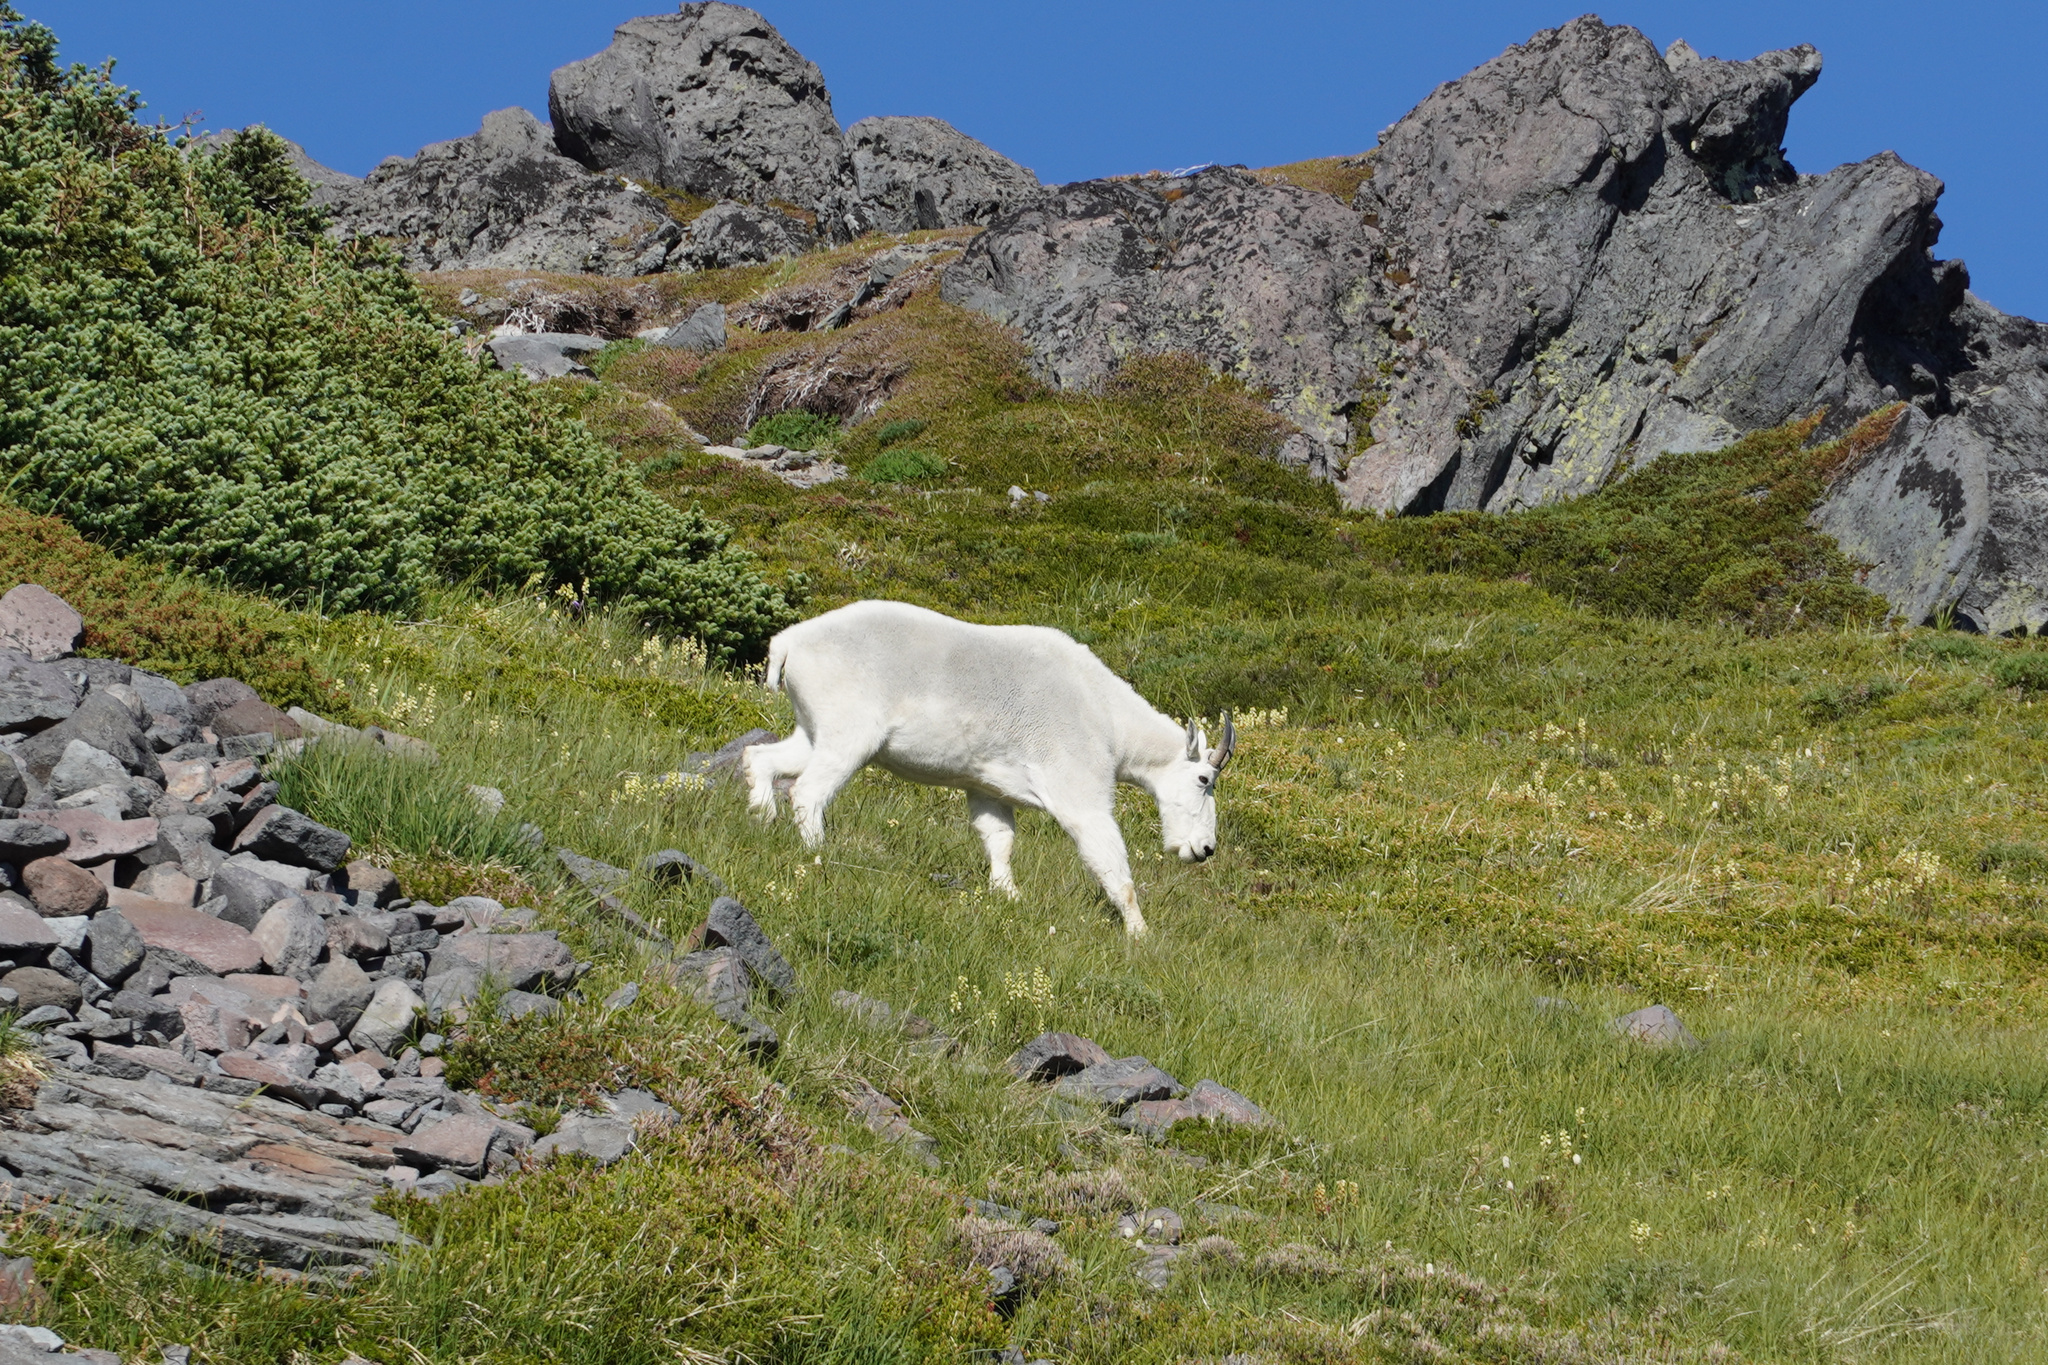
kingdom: Animalia
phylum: Chordata
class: Mammalia
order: Artiodactyla
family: Bovidae
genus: Oreamnos
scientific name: Oreamnos americanus
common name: Mountain goat
